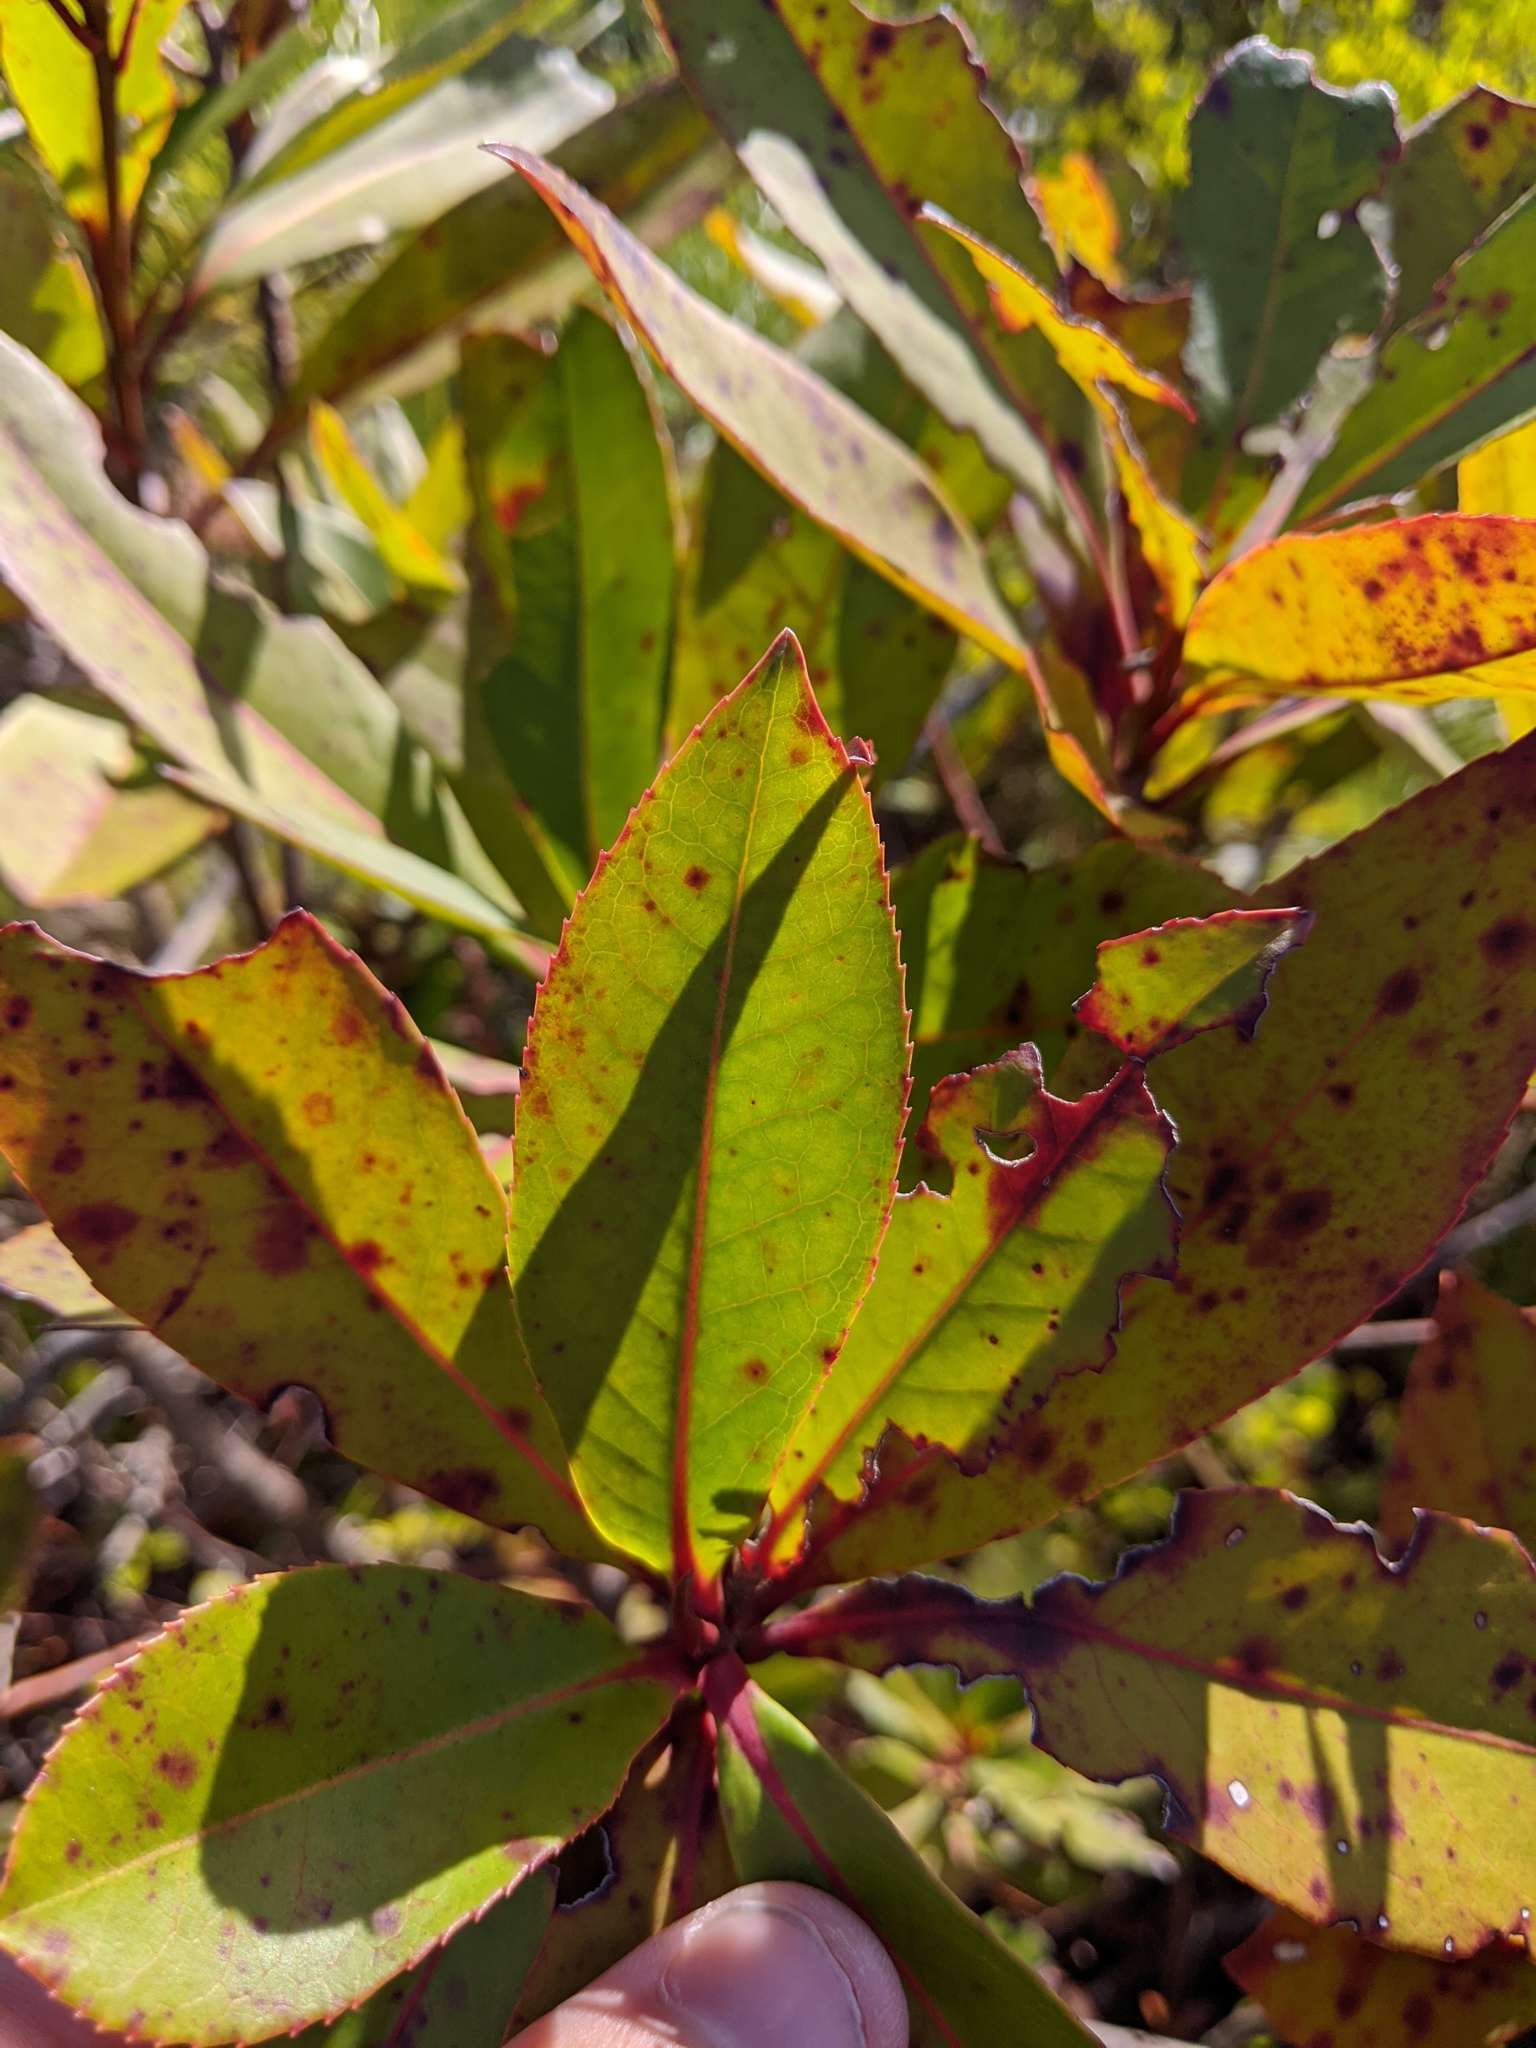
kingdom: Plantae
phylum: Tracheophyta
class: Magnoliopsida
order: Ericales
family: Theaceae
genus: Gordonia
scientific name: Gordonia lasianthus
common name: Loblolly bay
